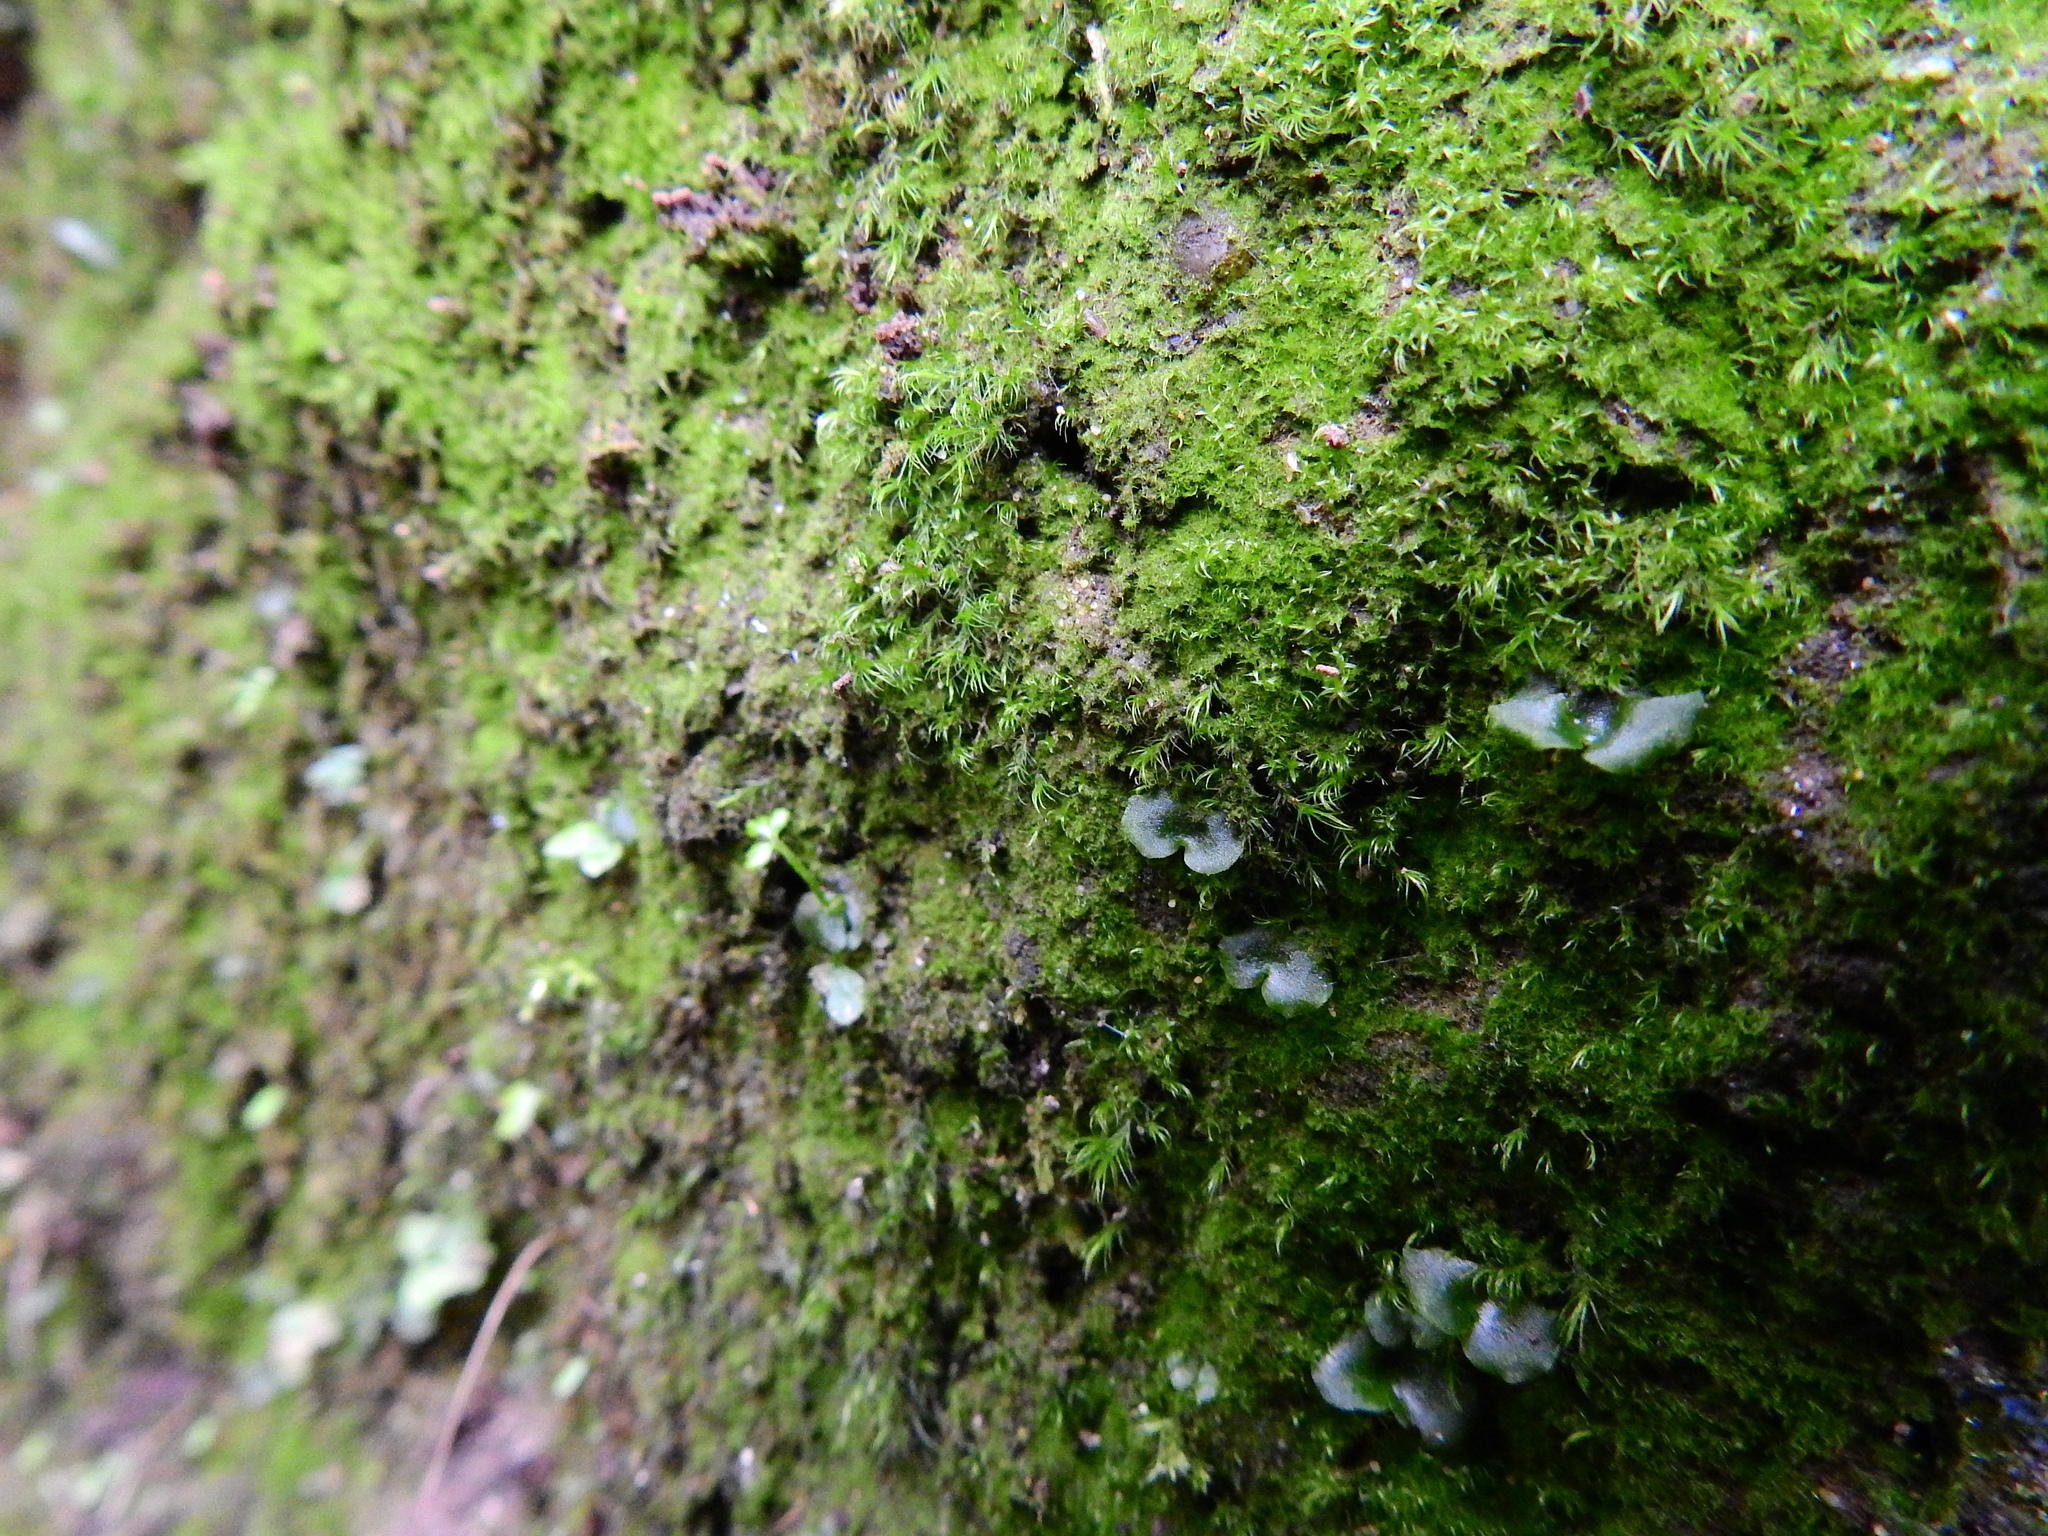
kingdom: Plantae
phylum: Bryophyta
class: Bryopsida
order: Dicranales
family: Dicranellaceae
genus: Dicranella
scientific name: Dicranella heteromalla
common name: Silky forklet moss
